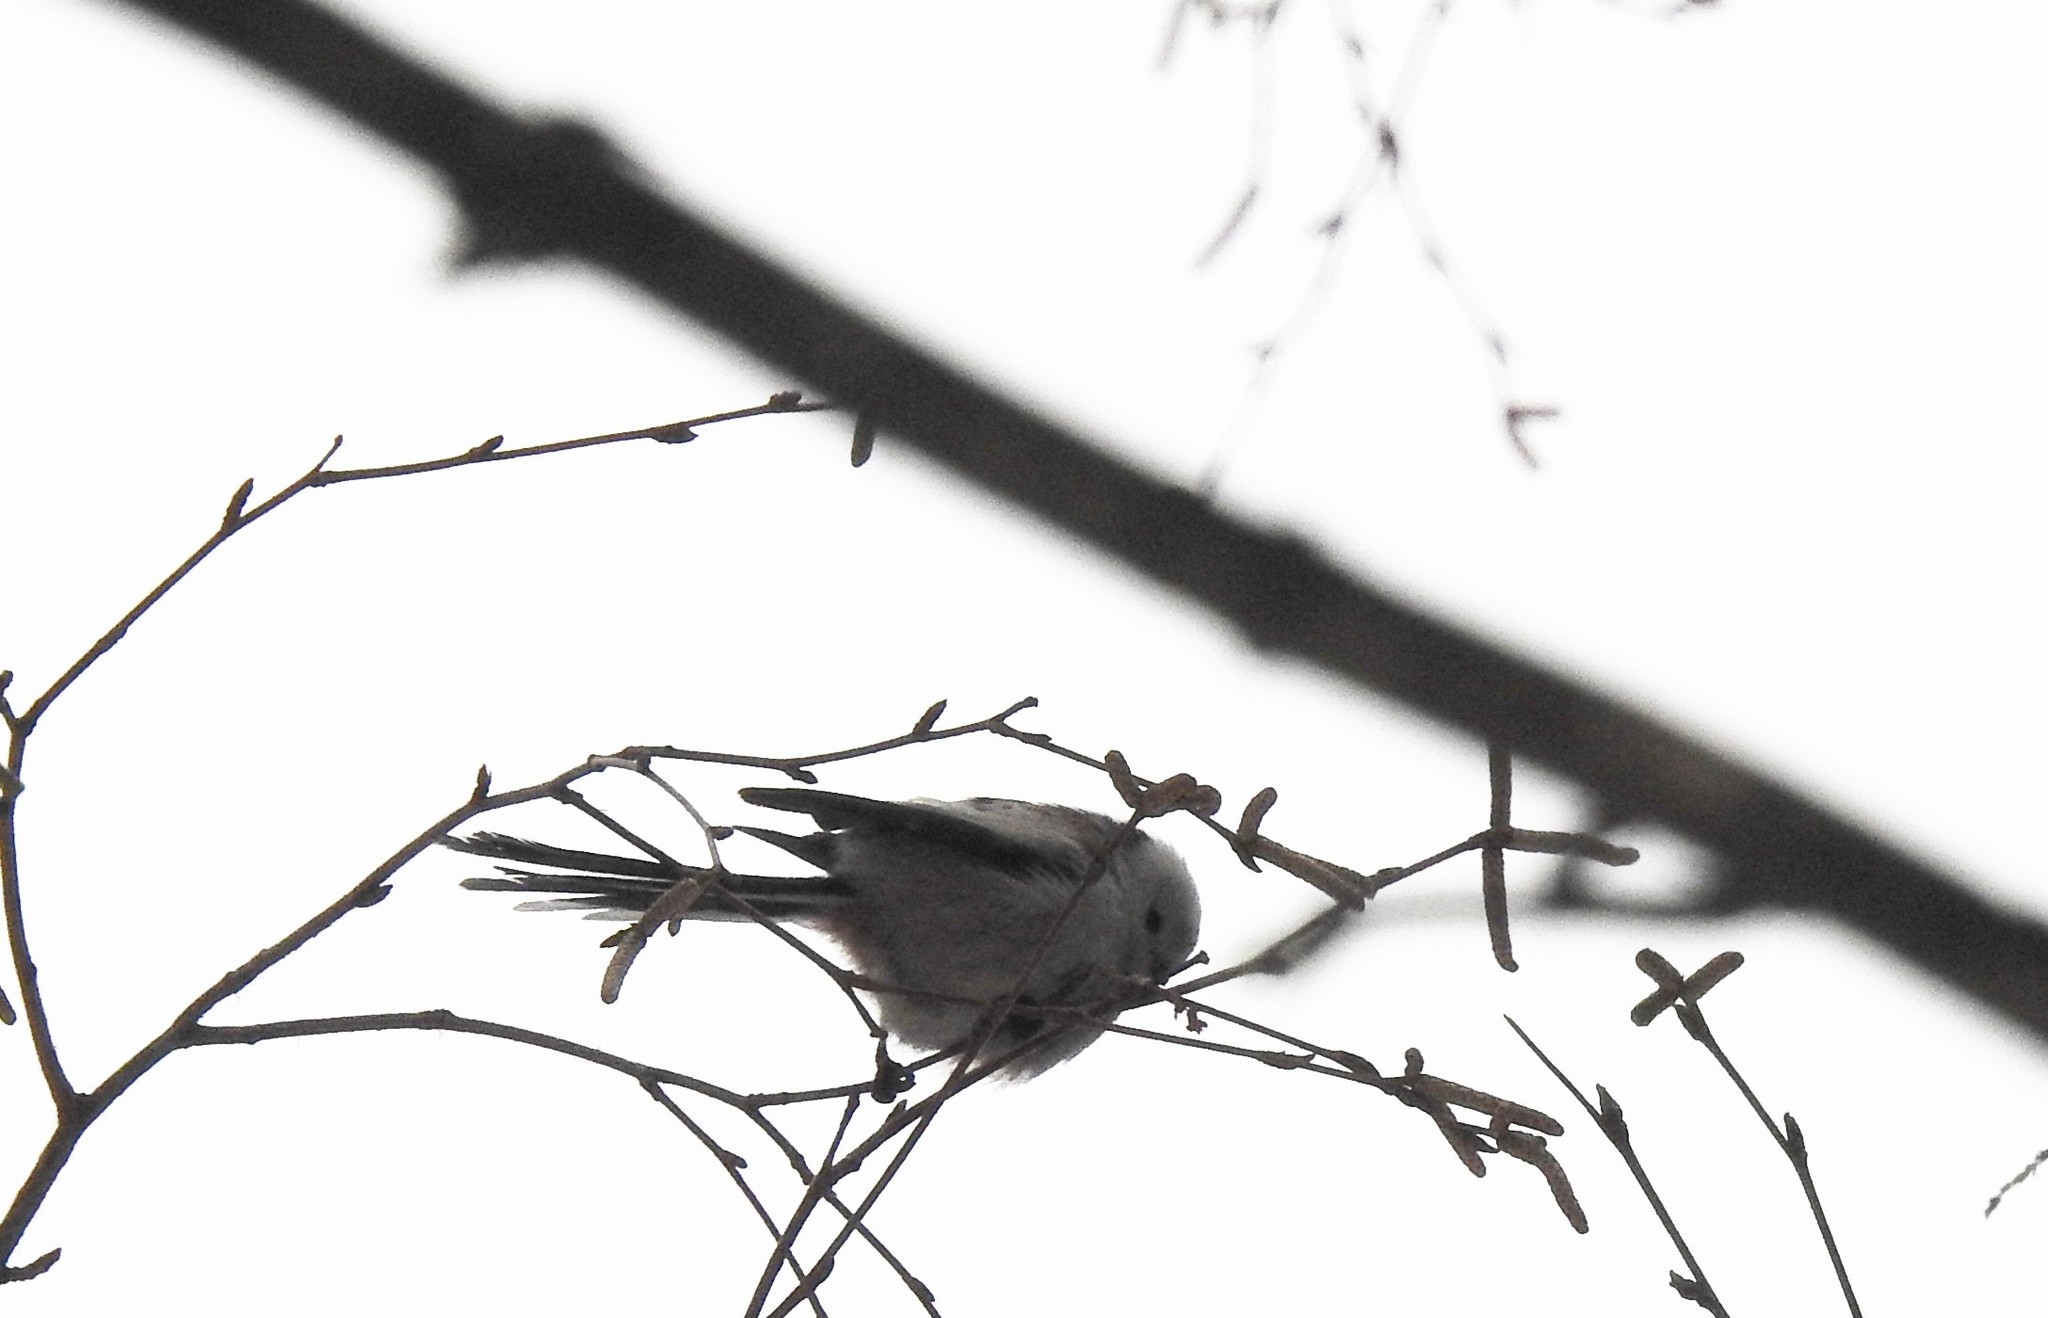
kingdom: Animalia
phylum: Chordata
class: Aves
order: Passeriformes
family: Aegithalidae
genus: Aegithalos
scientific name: Aegithalos caudatus
